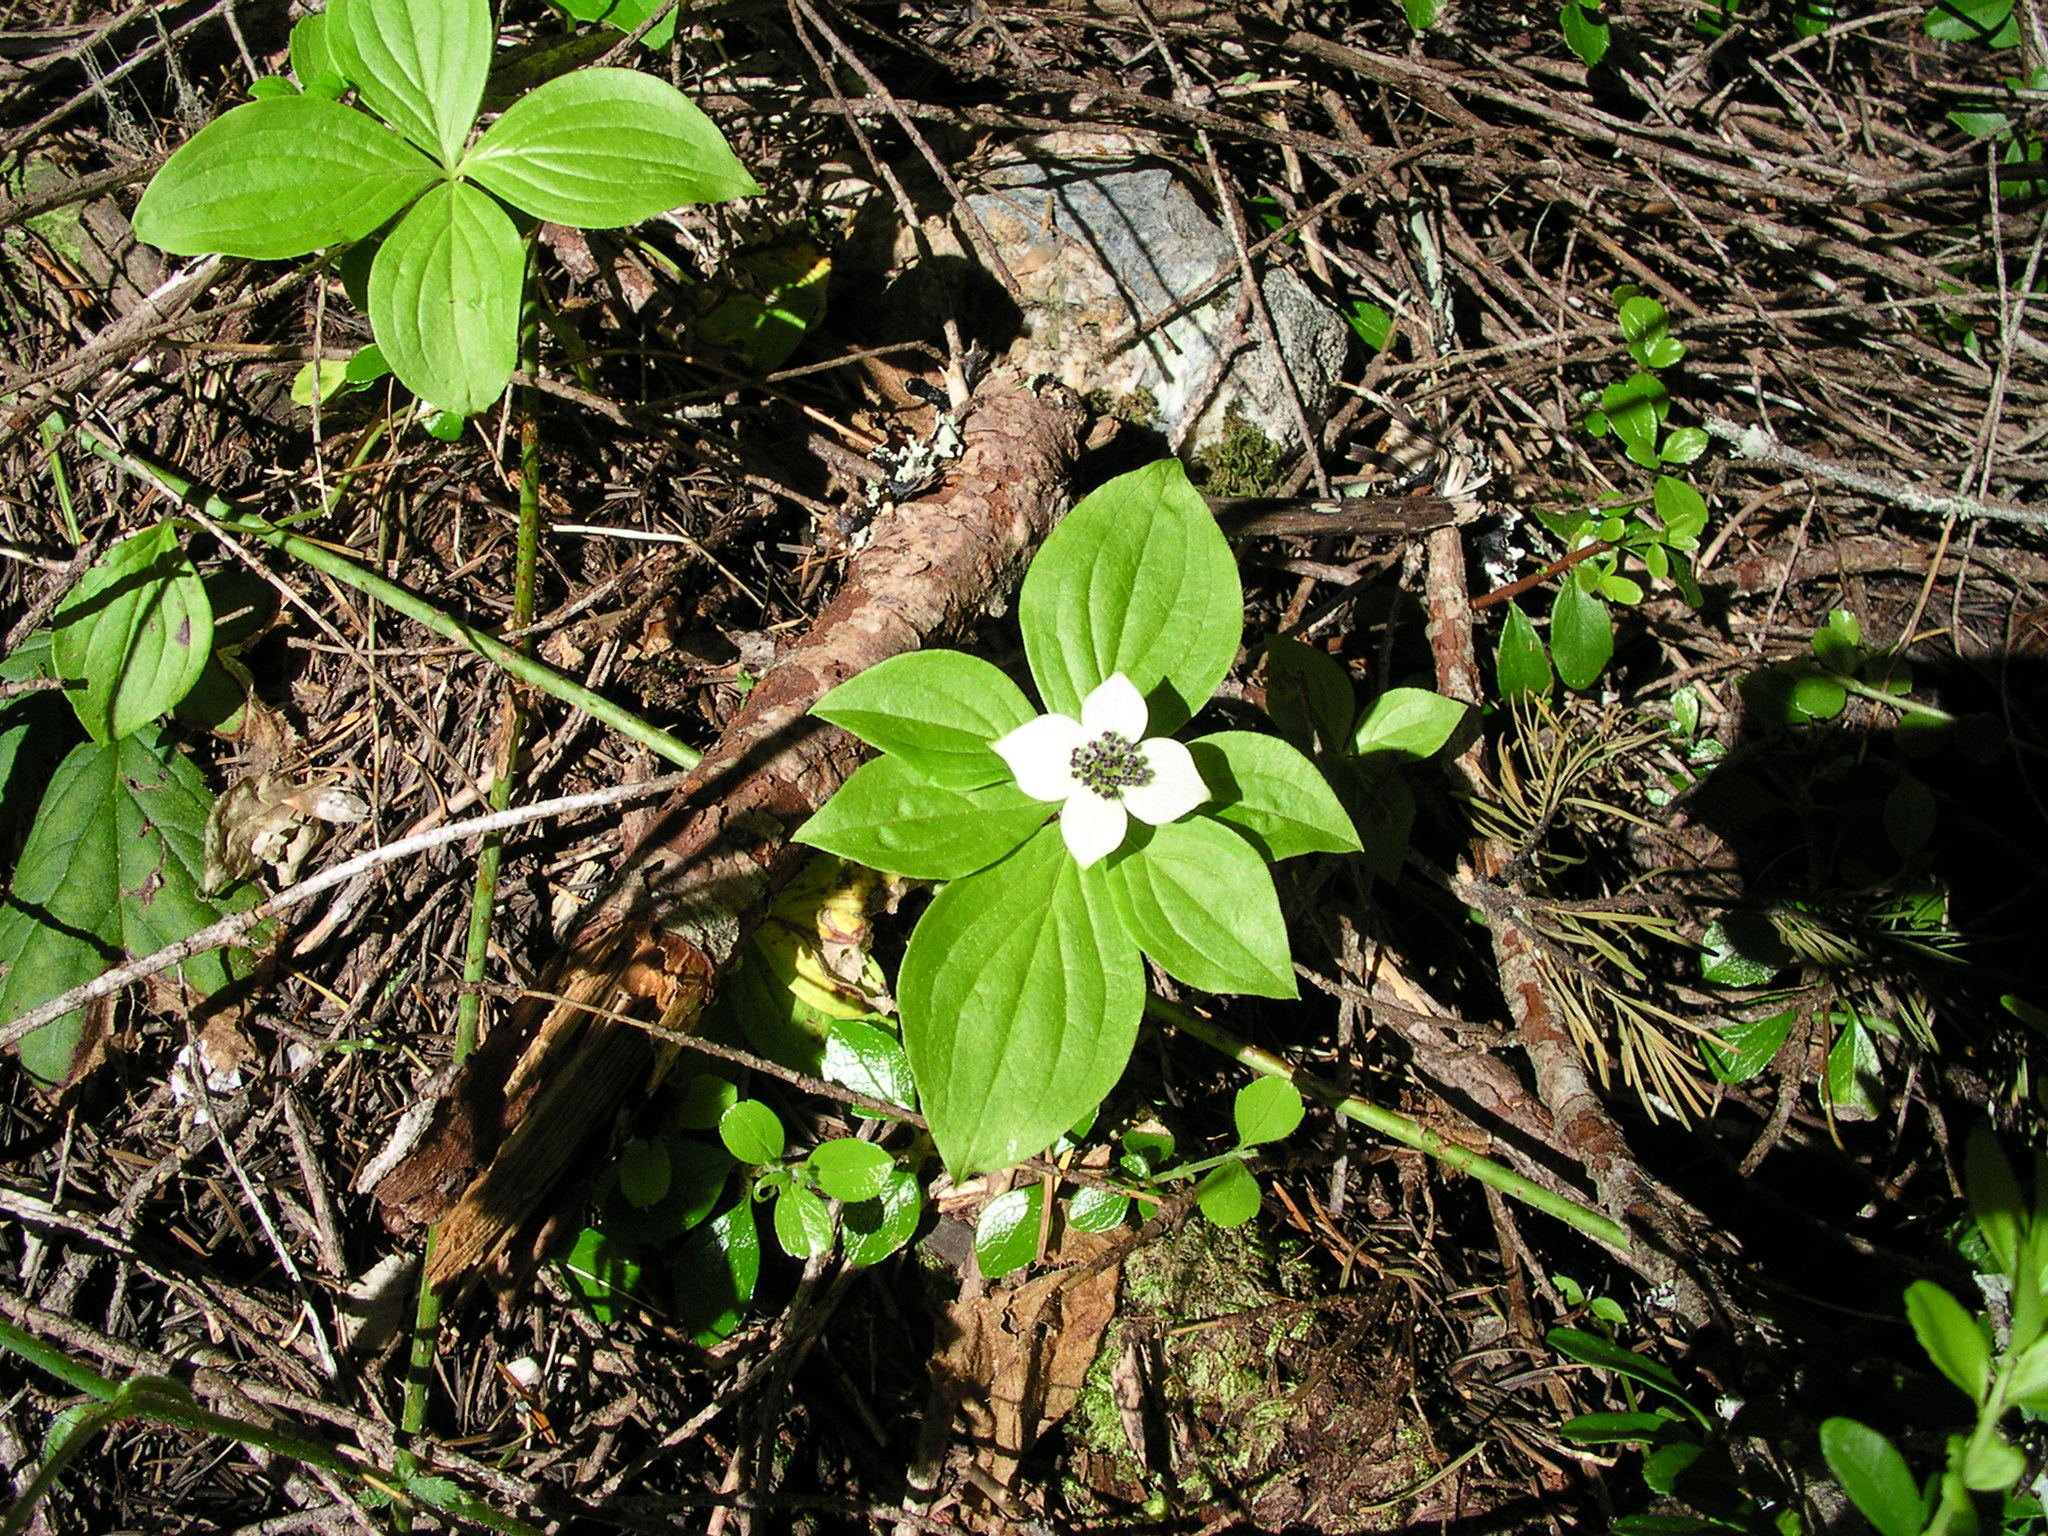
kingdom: Plantae
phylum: Tracheophyta
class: Magnoliopsida
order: Cornales
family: Cornaceae
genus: Cornus
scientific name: Cornus unalaschkensis
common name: Alaska bunchberry
